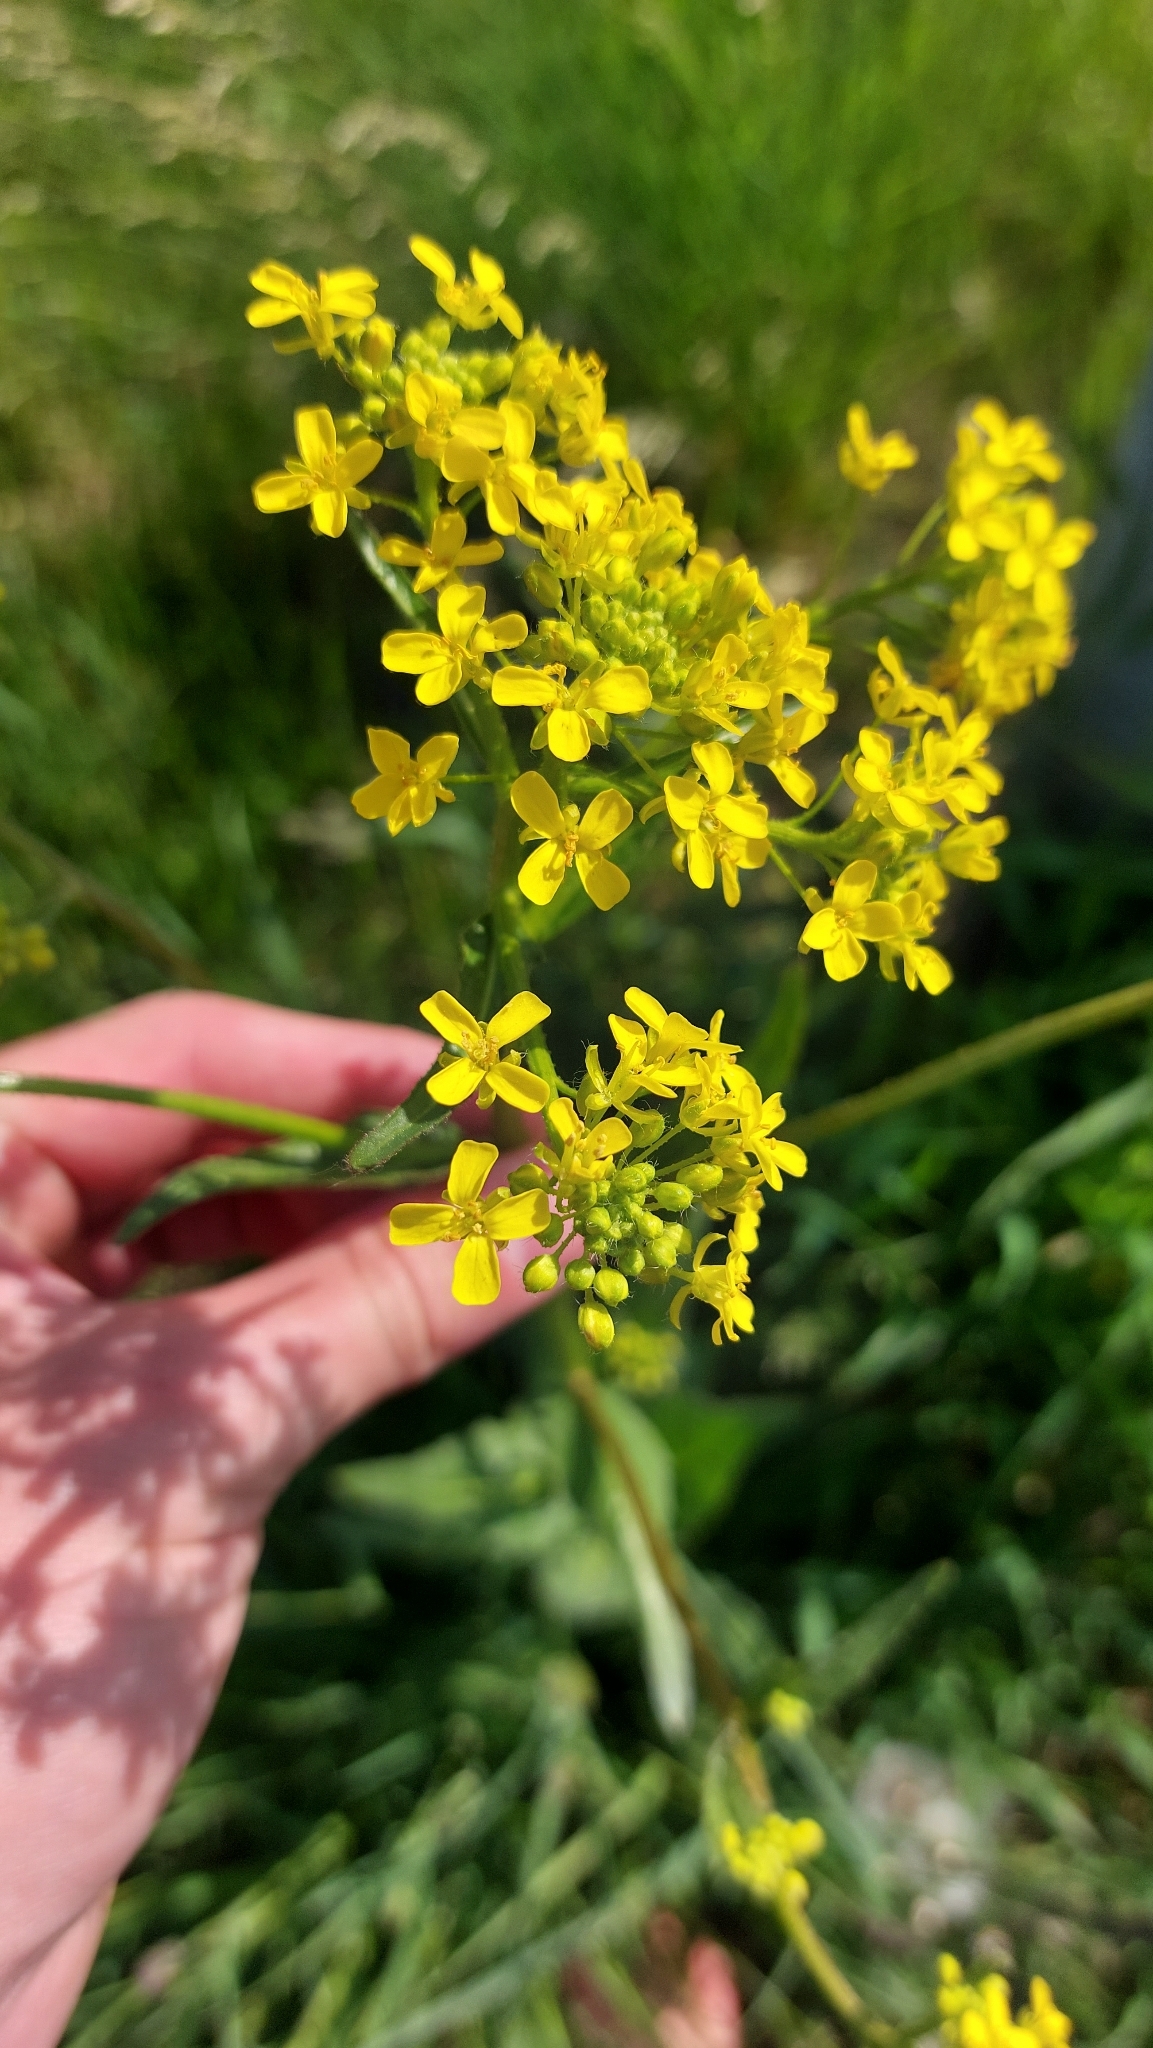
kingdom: Plantae
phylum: Tracheophyta
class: Magnoliopsida
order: Brassicales
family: Brassicaceae
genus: Bunias
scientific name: Bunias orientalis
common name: Warty-cabbage
